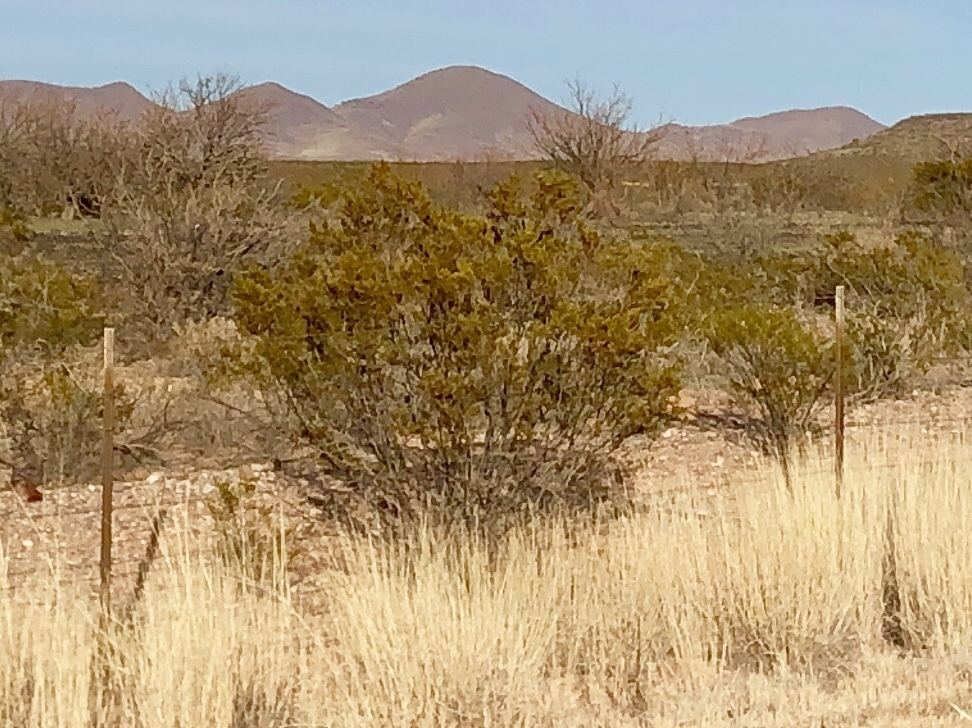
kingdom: Plantae
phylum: Tracheophyta
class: Magnoliopsida
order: Zygophyllales
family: Zygophyllaceae
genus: Larrea
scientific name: Larrea tridentata
